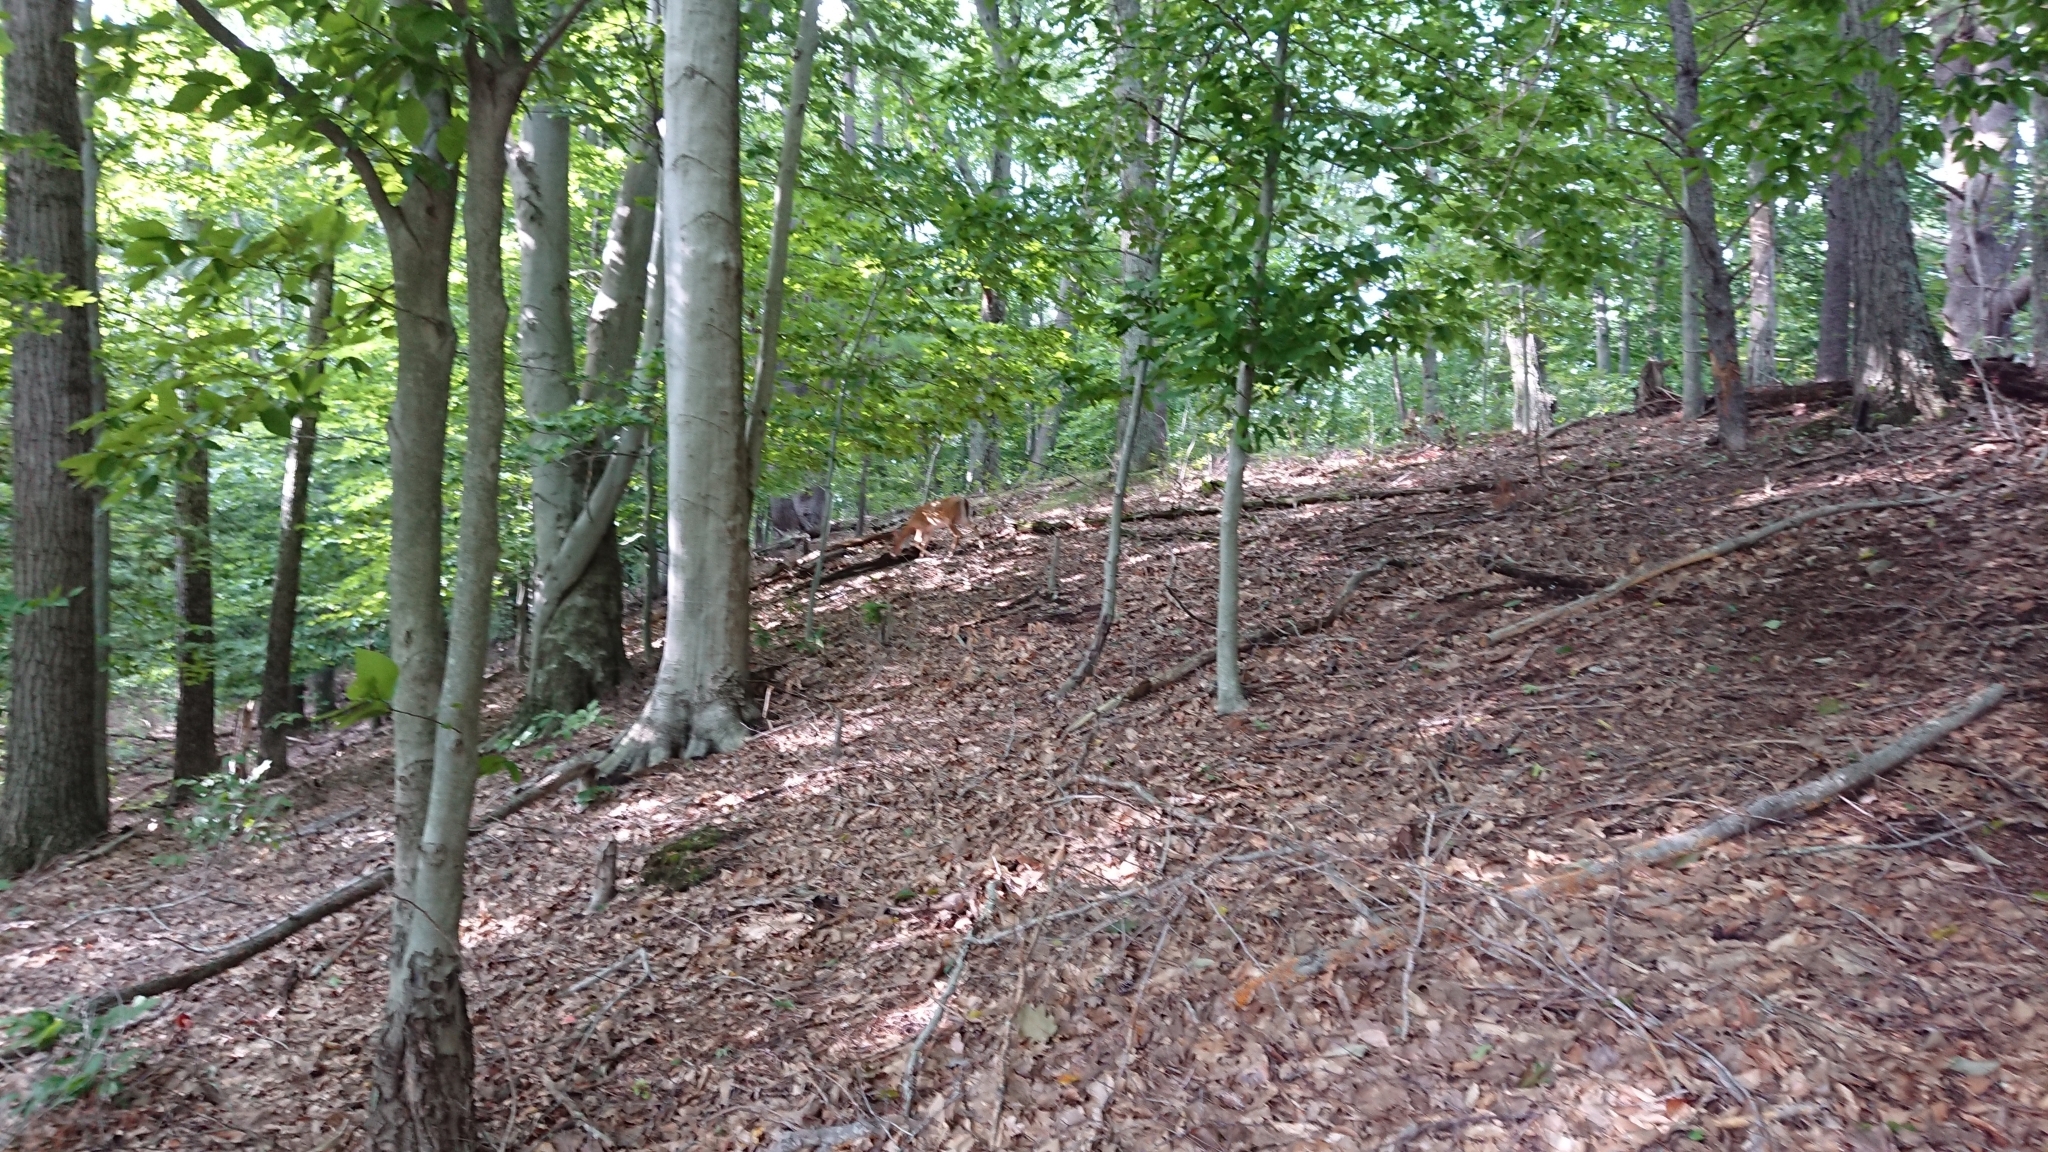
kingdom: Animalia
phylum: Chordata
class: Mammalia
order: Artiodactyla
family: Cervidae
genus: Odocoileus
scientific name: Odocoileus virginianus
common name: White-tailed deer
